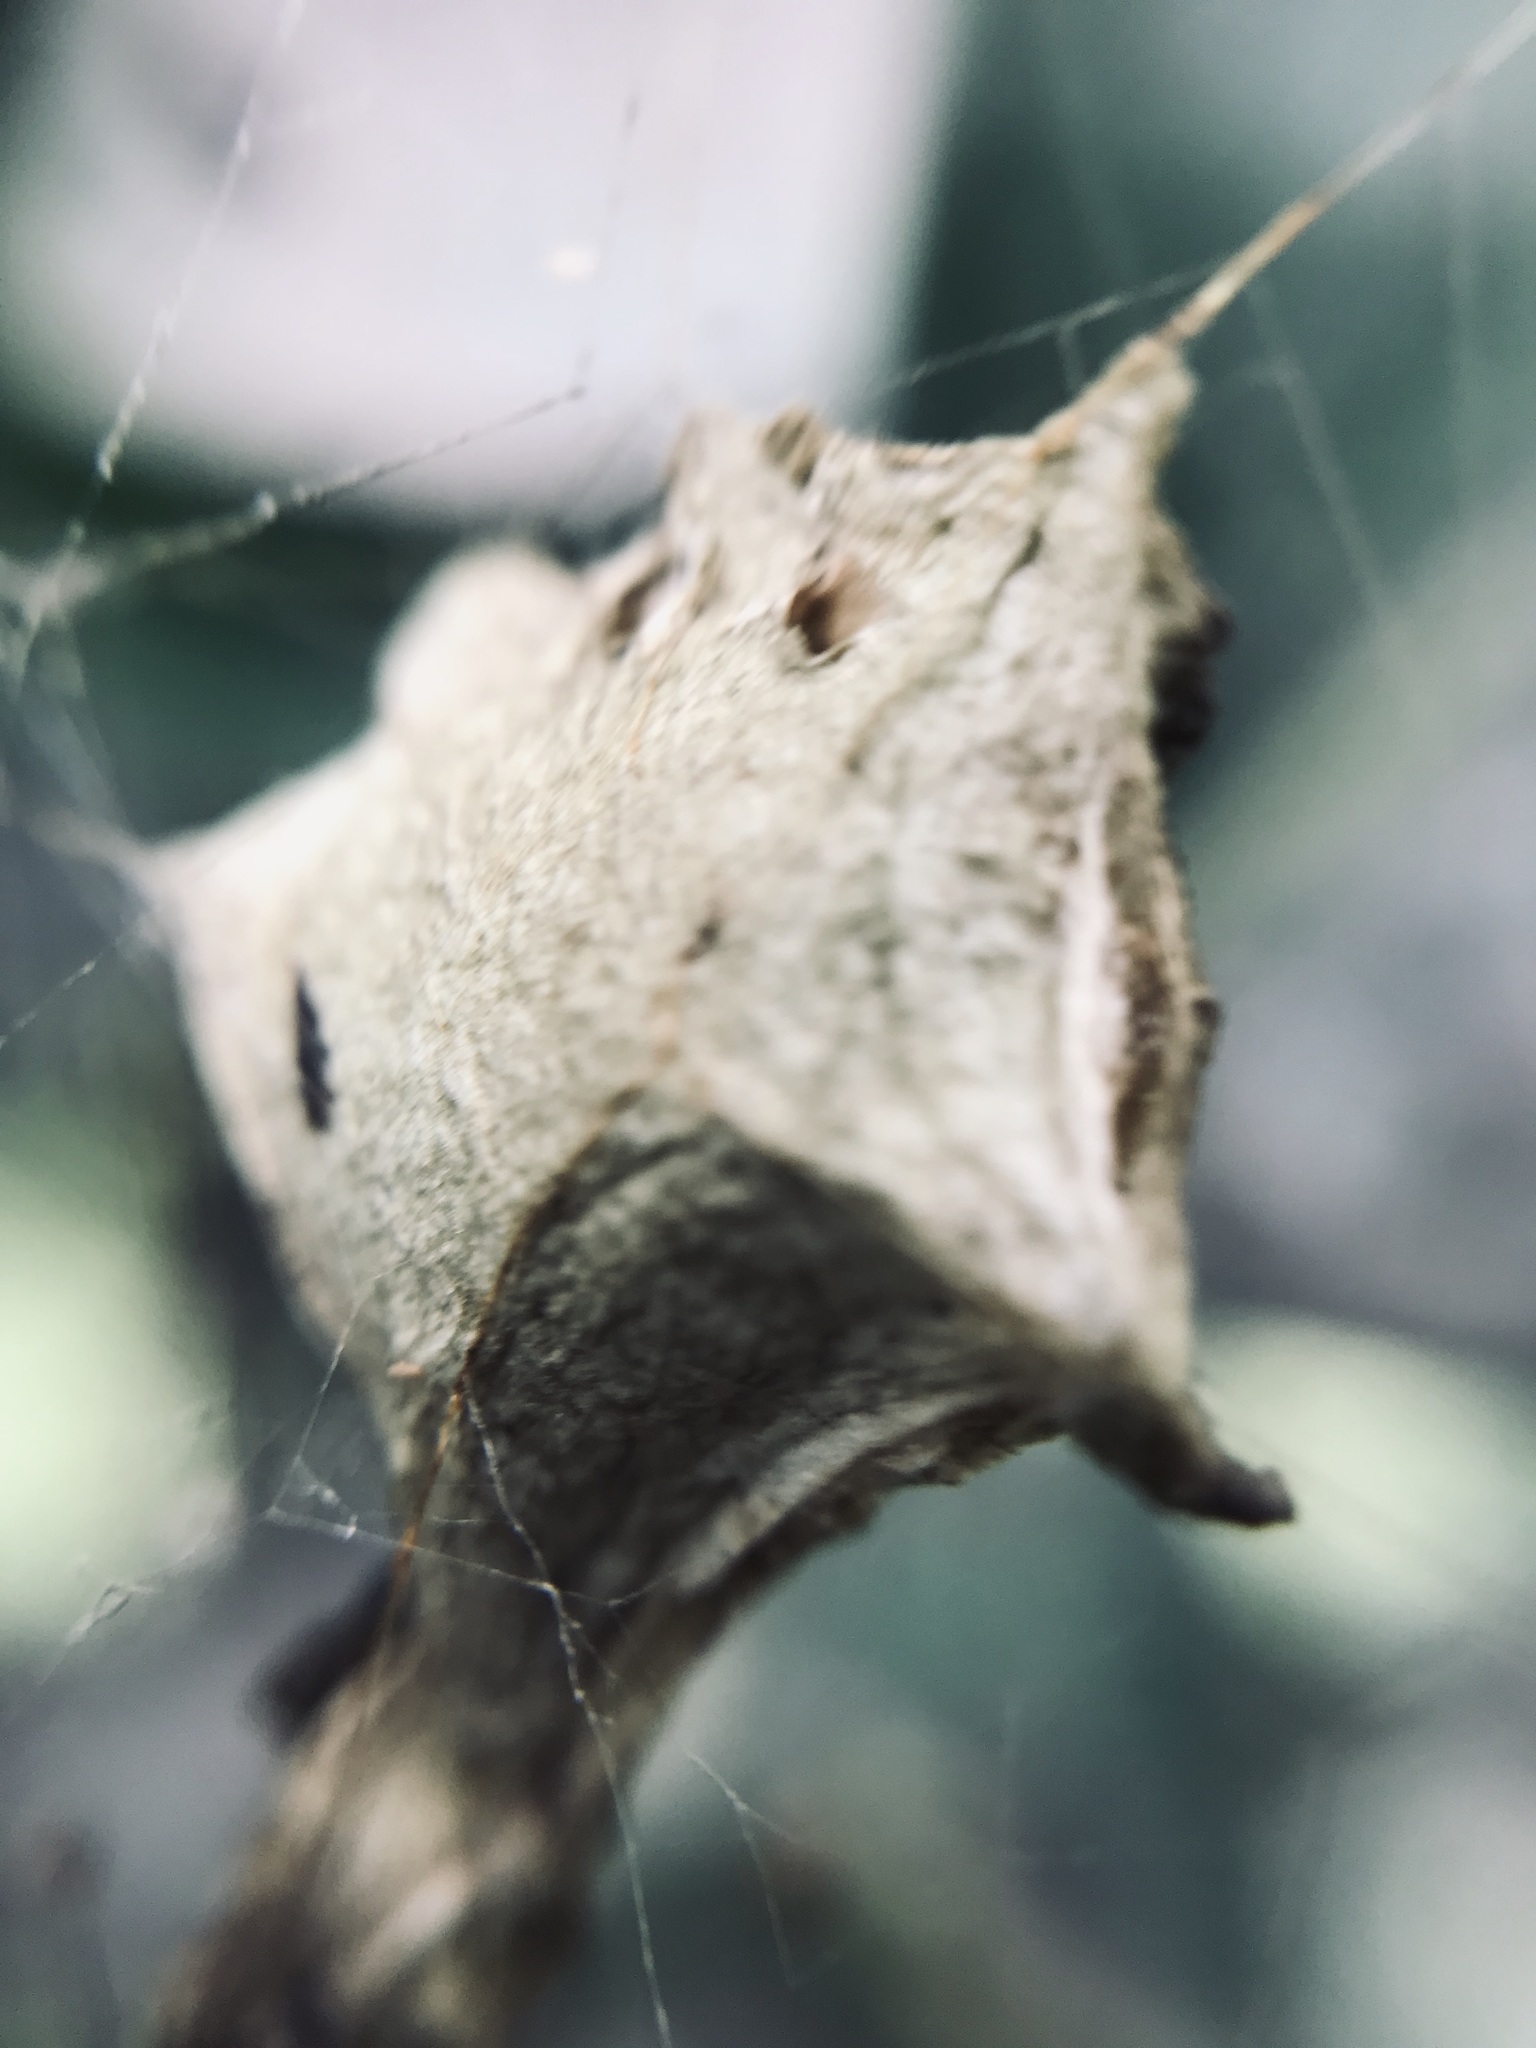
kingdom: Animalia
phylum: Arthropoda
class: Arachnida
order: Araneae
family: Araneidae
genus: Argiope
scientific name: Argiope argentata
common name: Orb weavers
